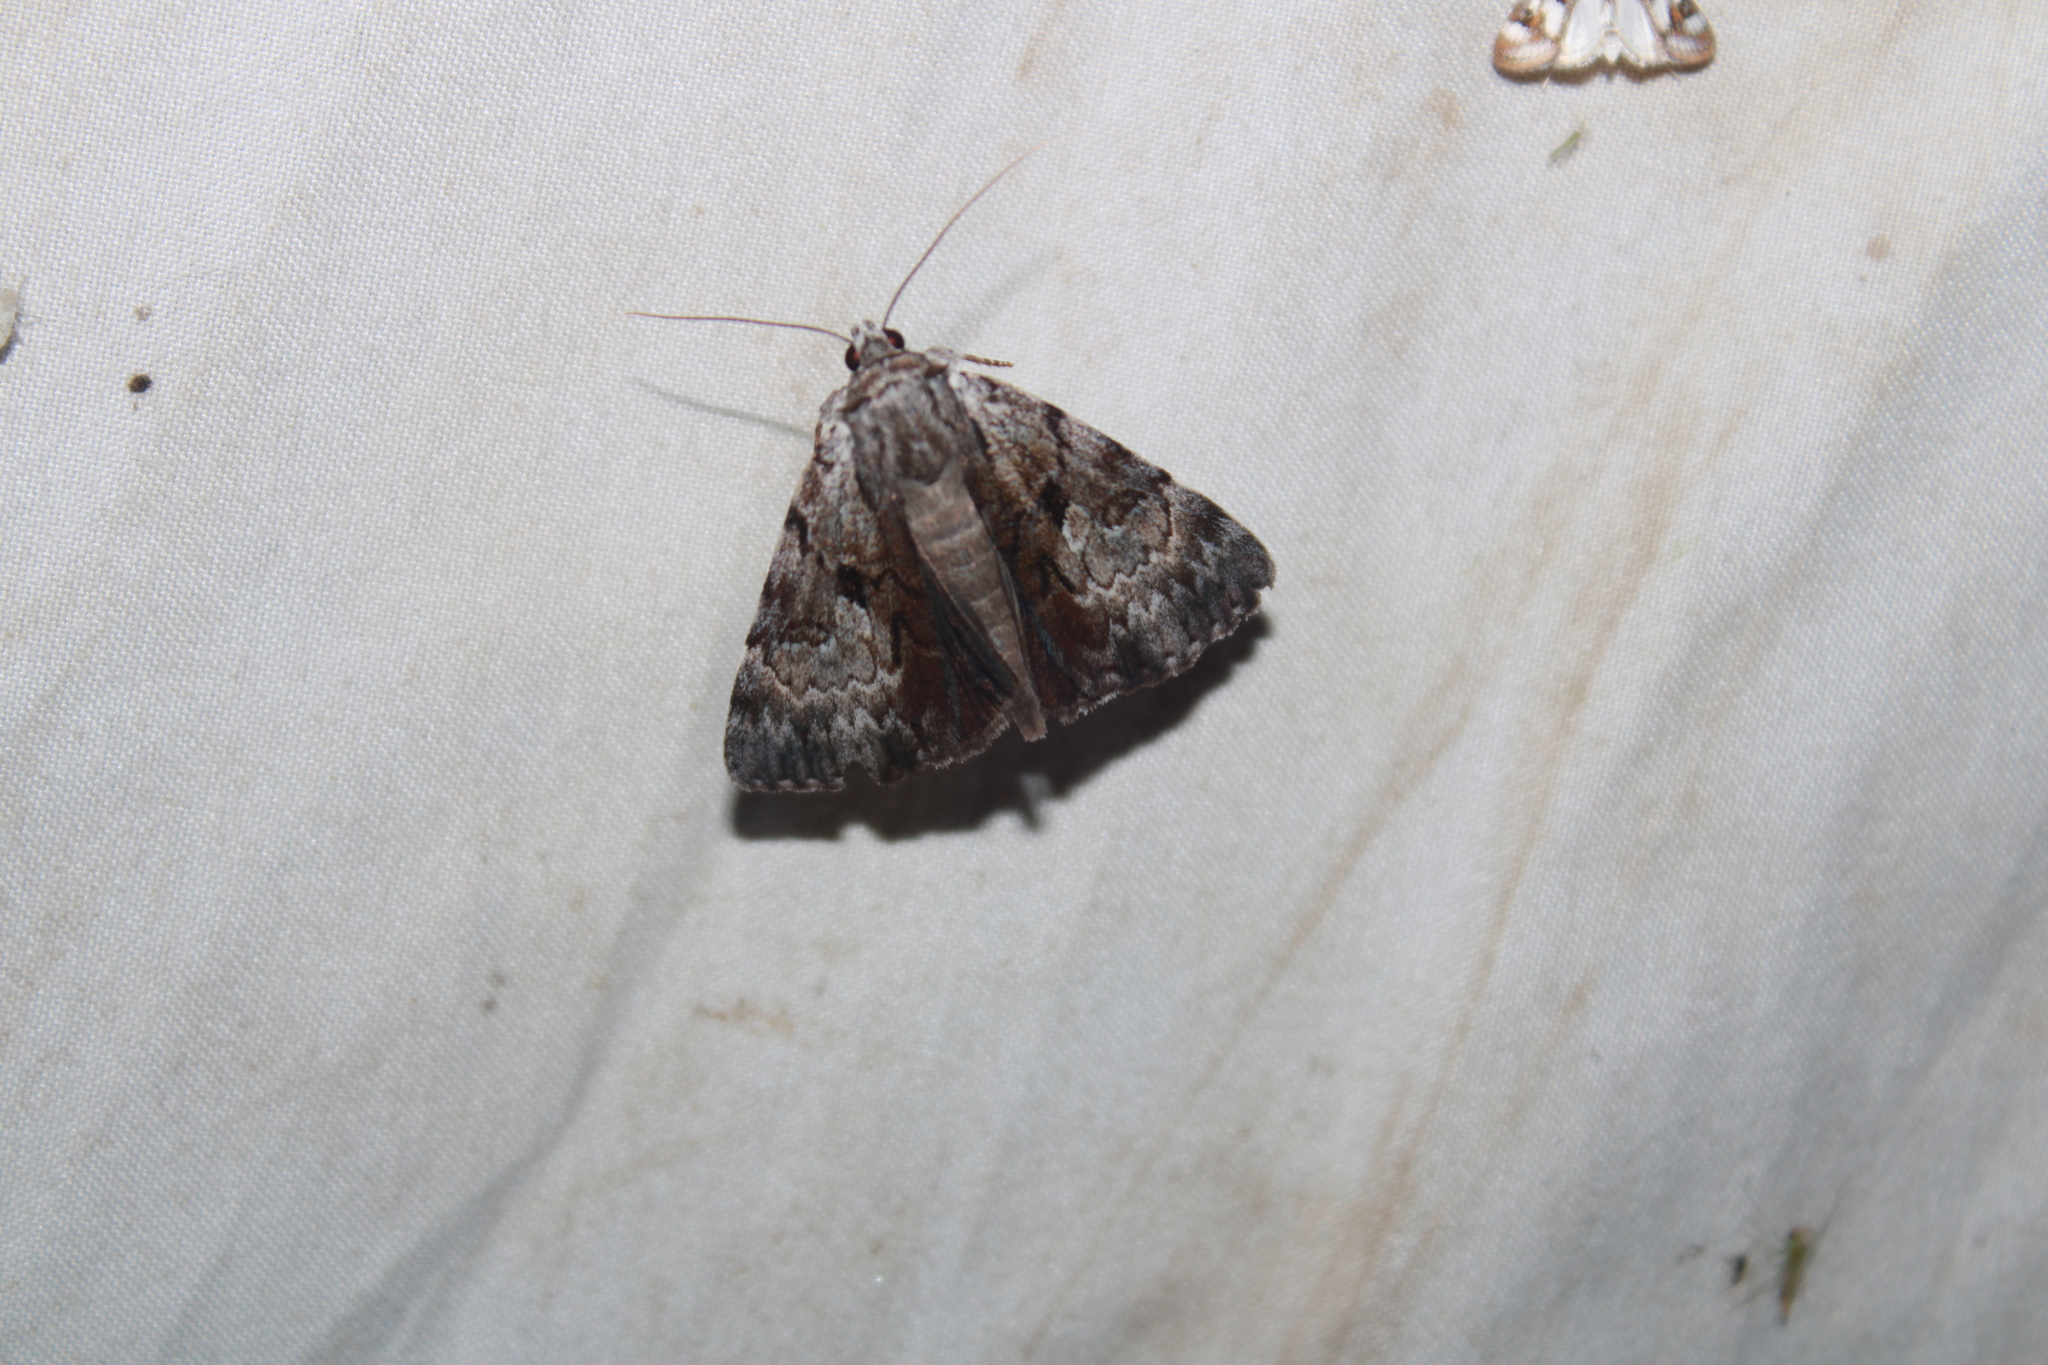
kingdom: Animalia
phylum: Arthropoda
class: Insecta
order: Lepidoptera
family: Erebidae
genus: Catocala
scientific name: Catocala andromedae
